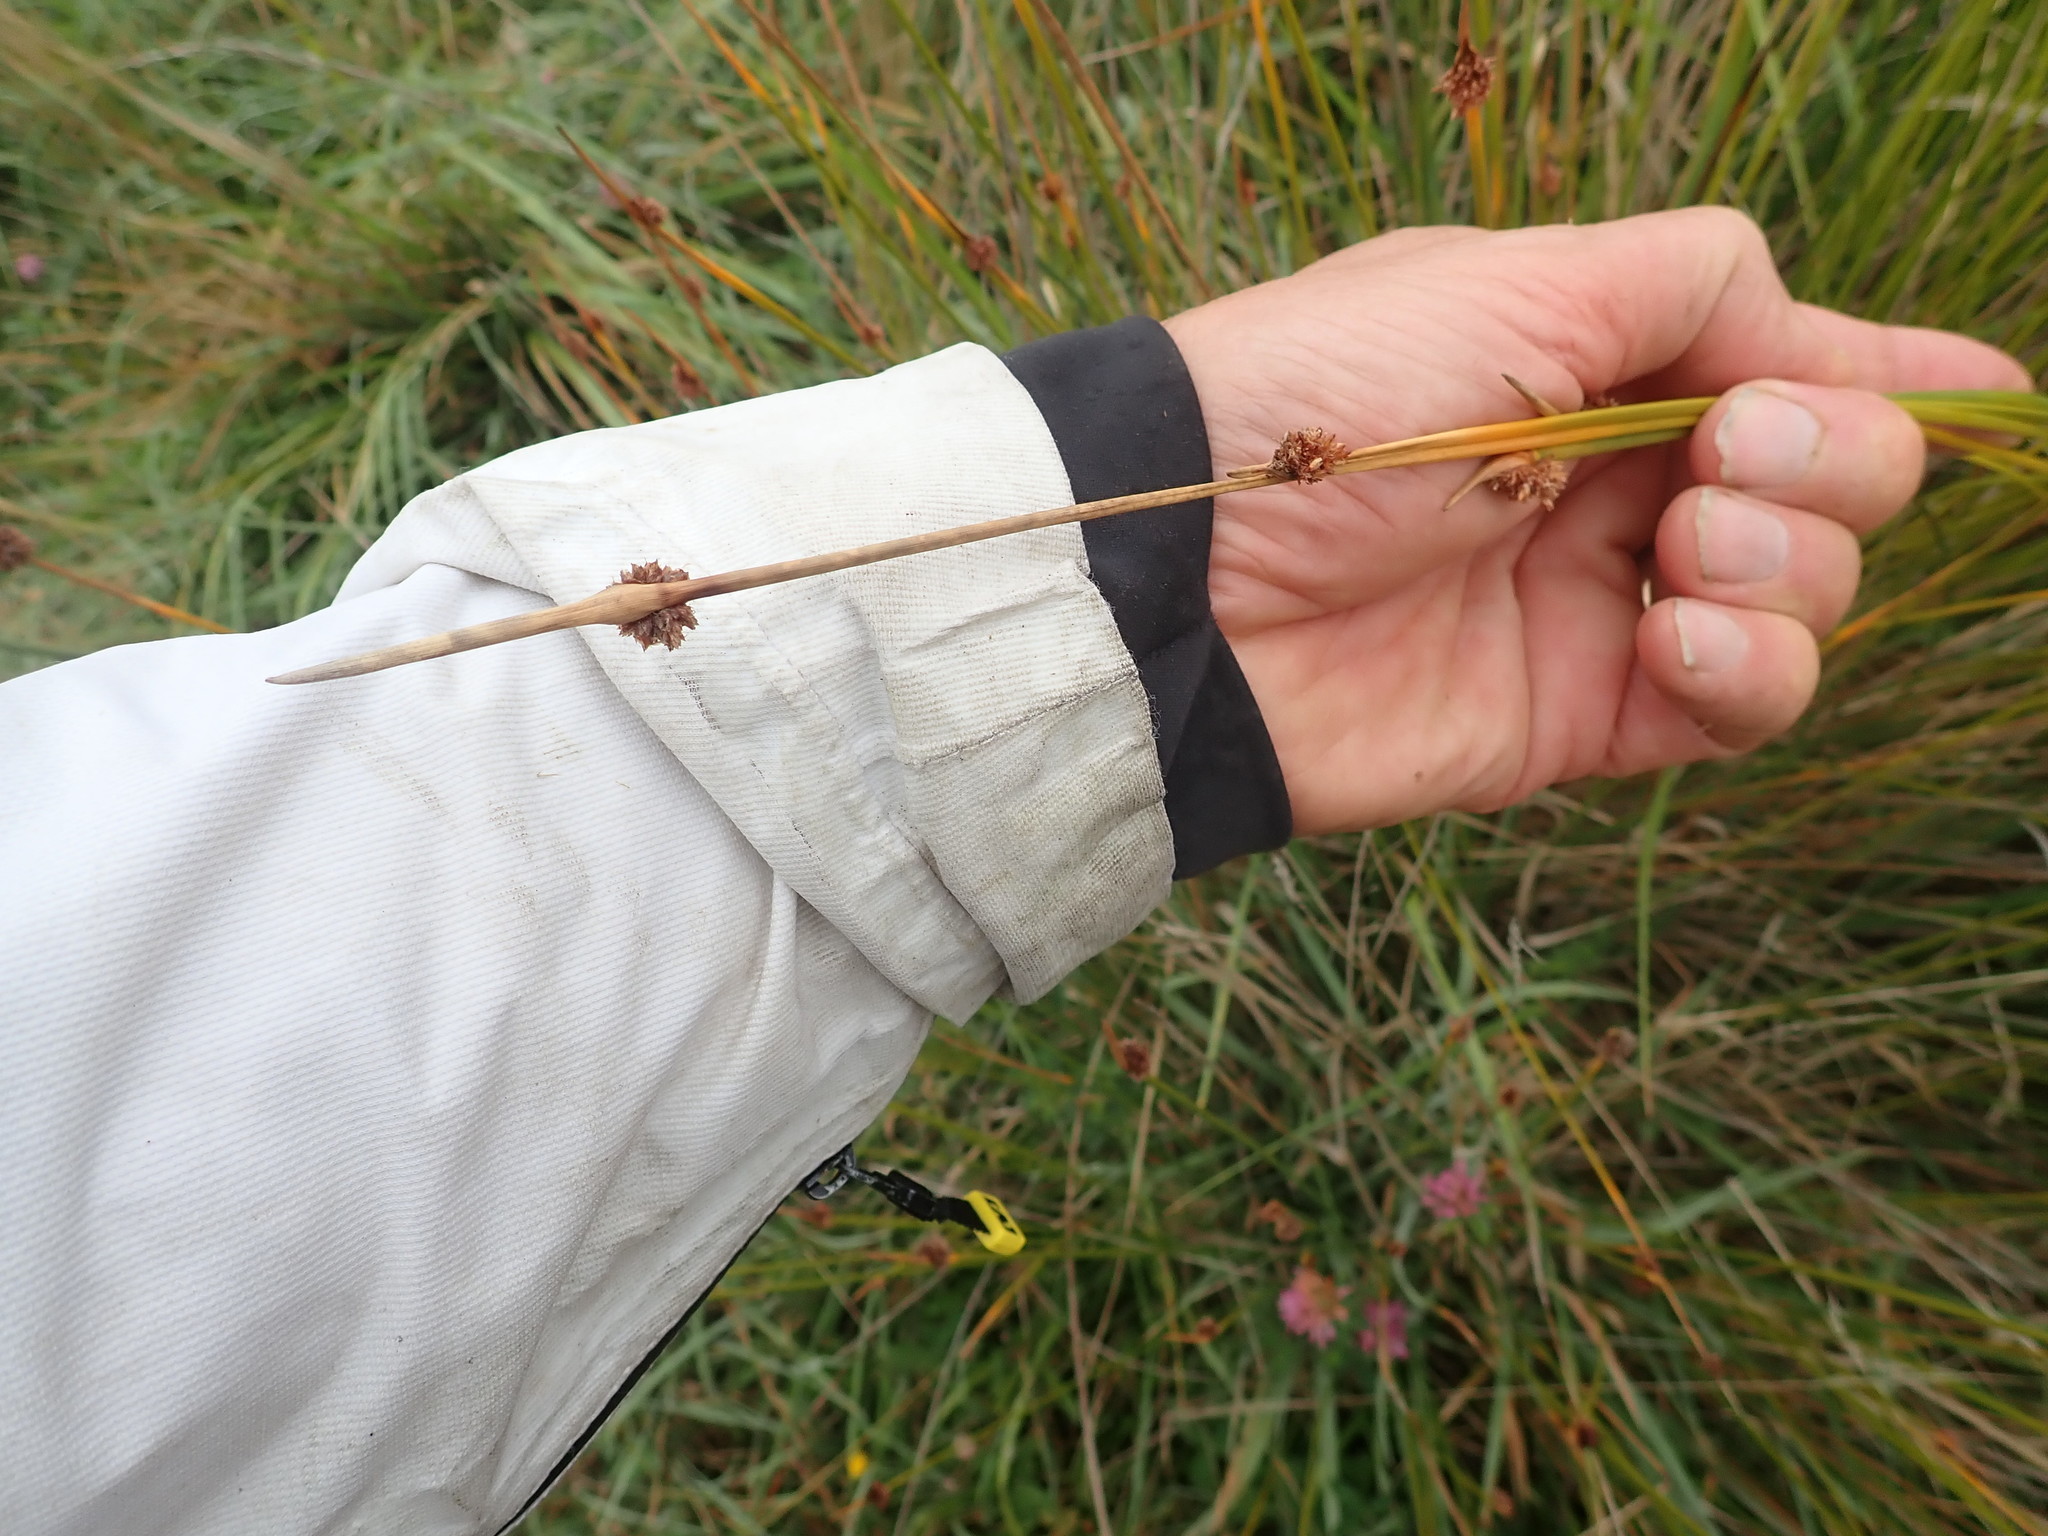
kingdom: Plantae
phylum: Tracheophyta
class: Liliopsida
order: Poales
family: Cyperaceae
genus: Ficinia
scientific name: Ficinia nodosa
